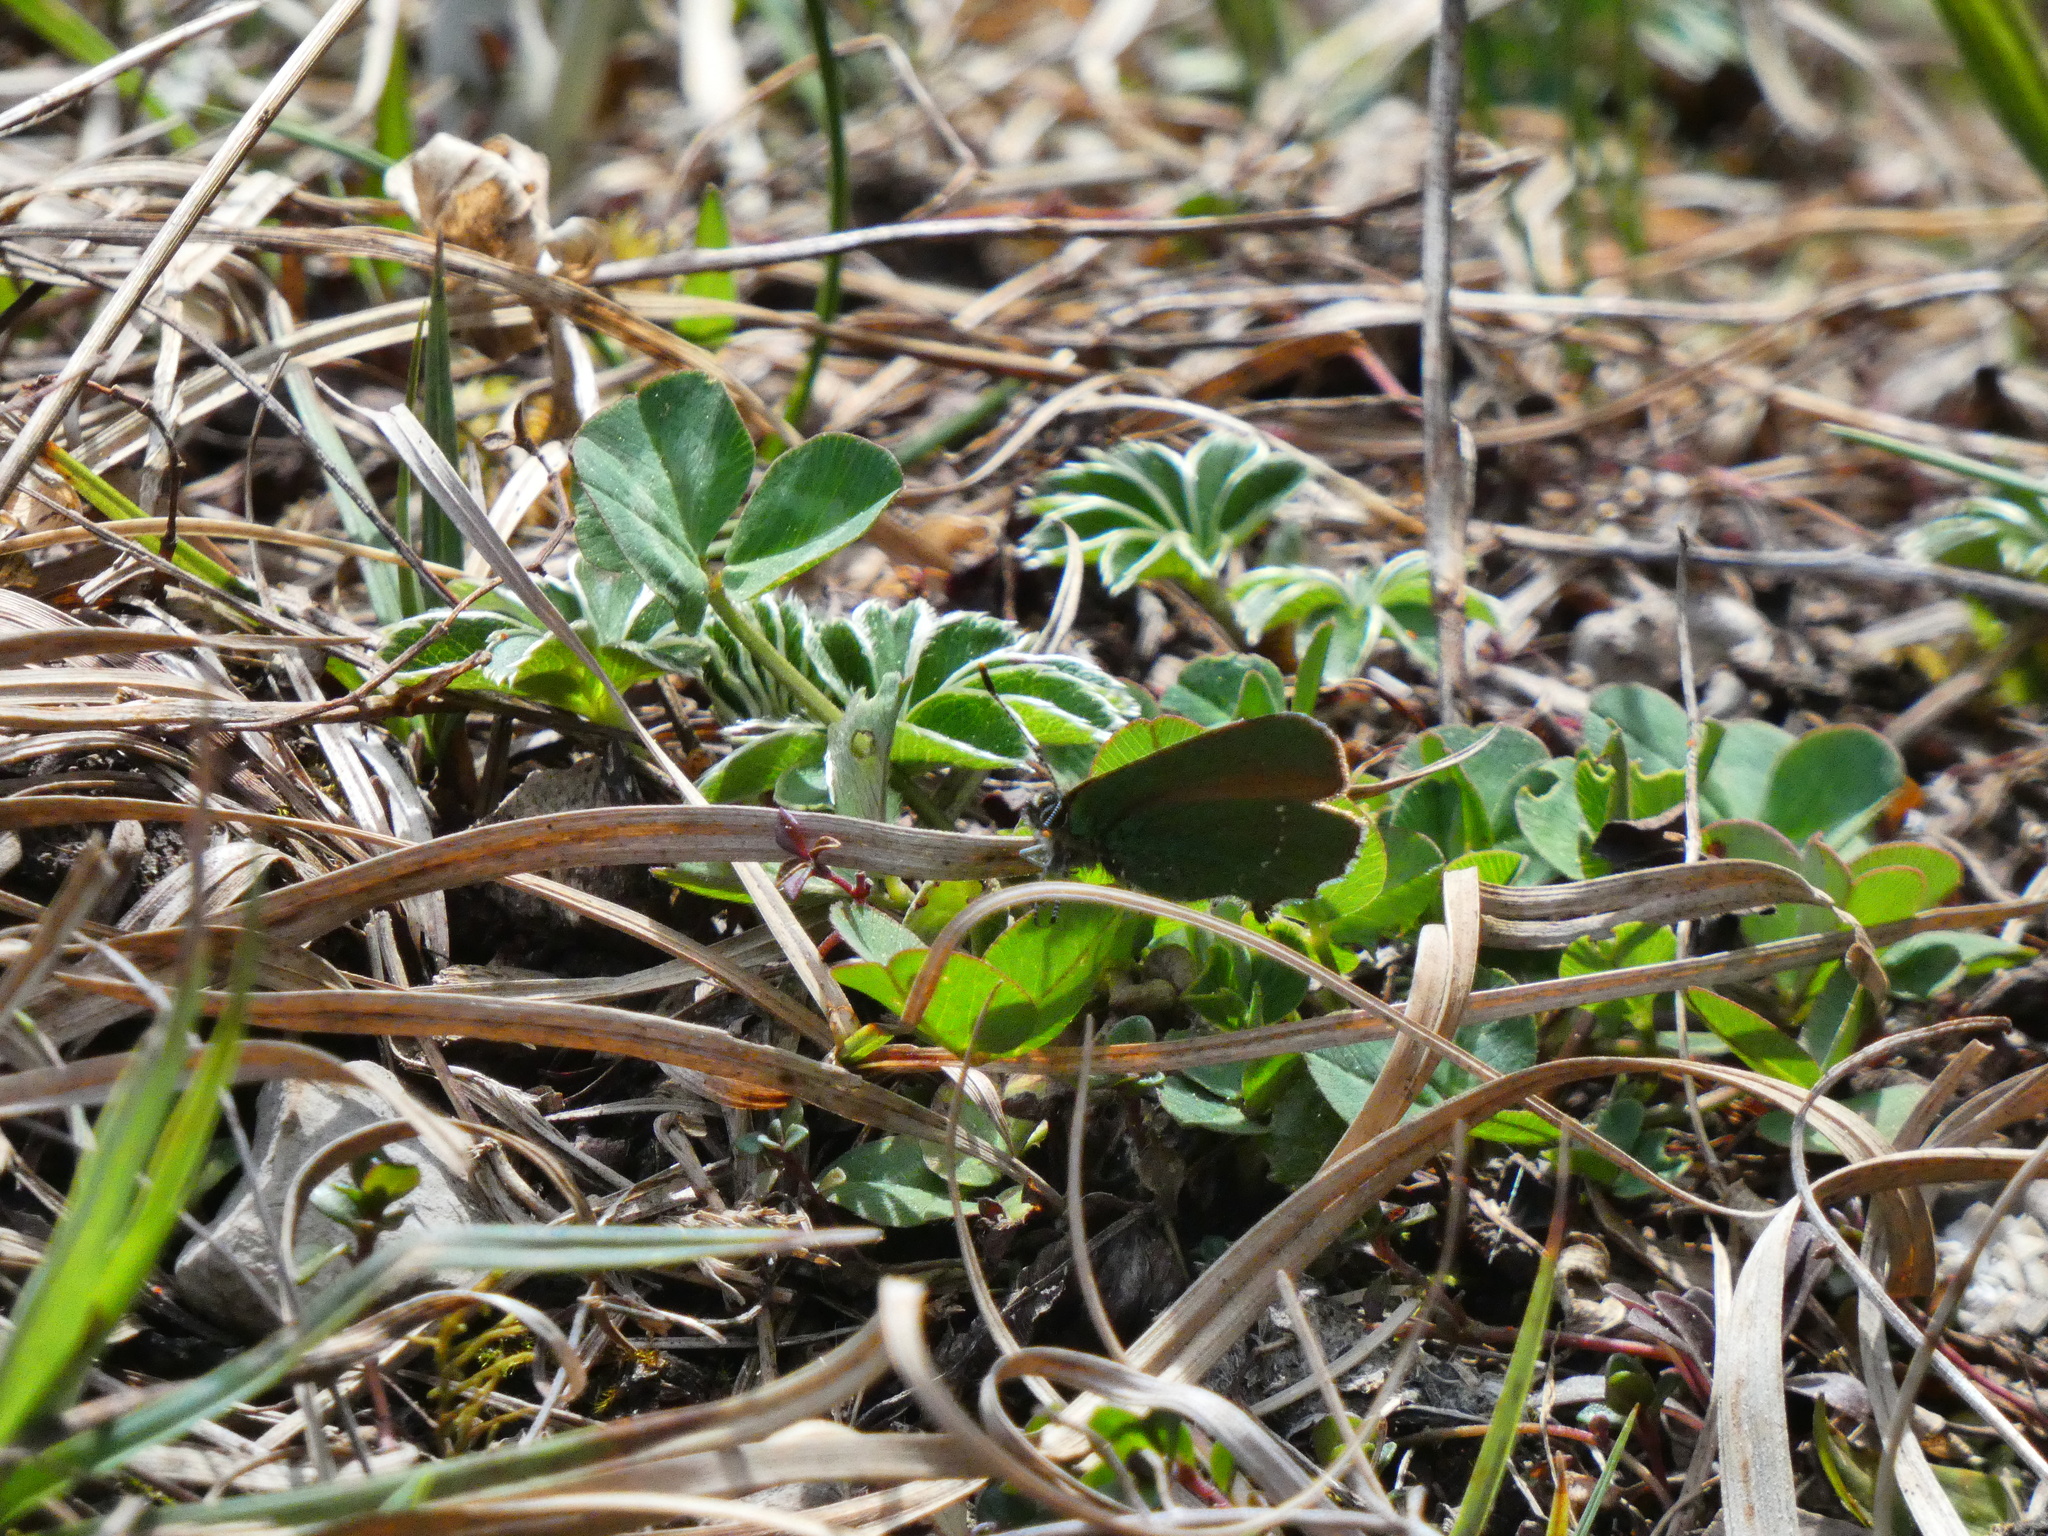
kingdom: Animalia
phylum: Arthropoda
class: Insecta
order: Lepidoptera
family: Lycaenidae
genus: Callophrys
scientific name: Callophrys rubi
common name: Green hairstreak
